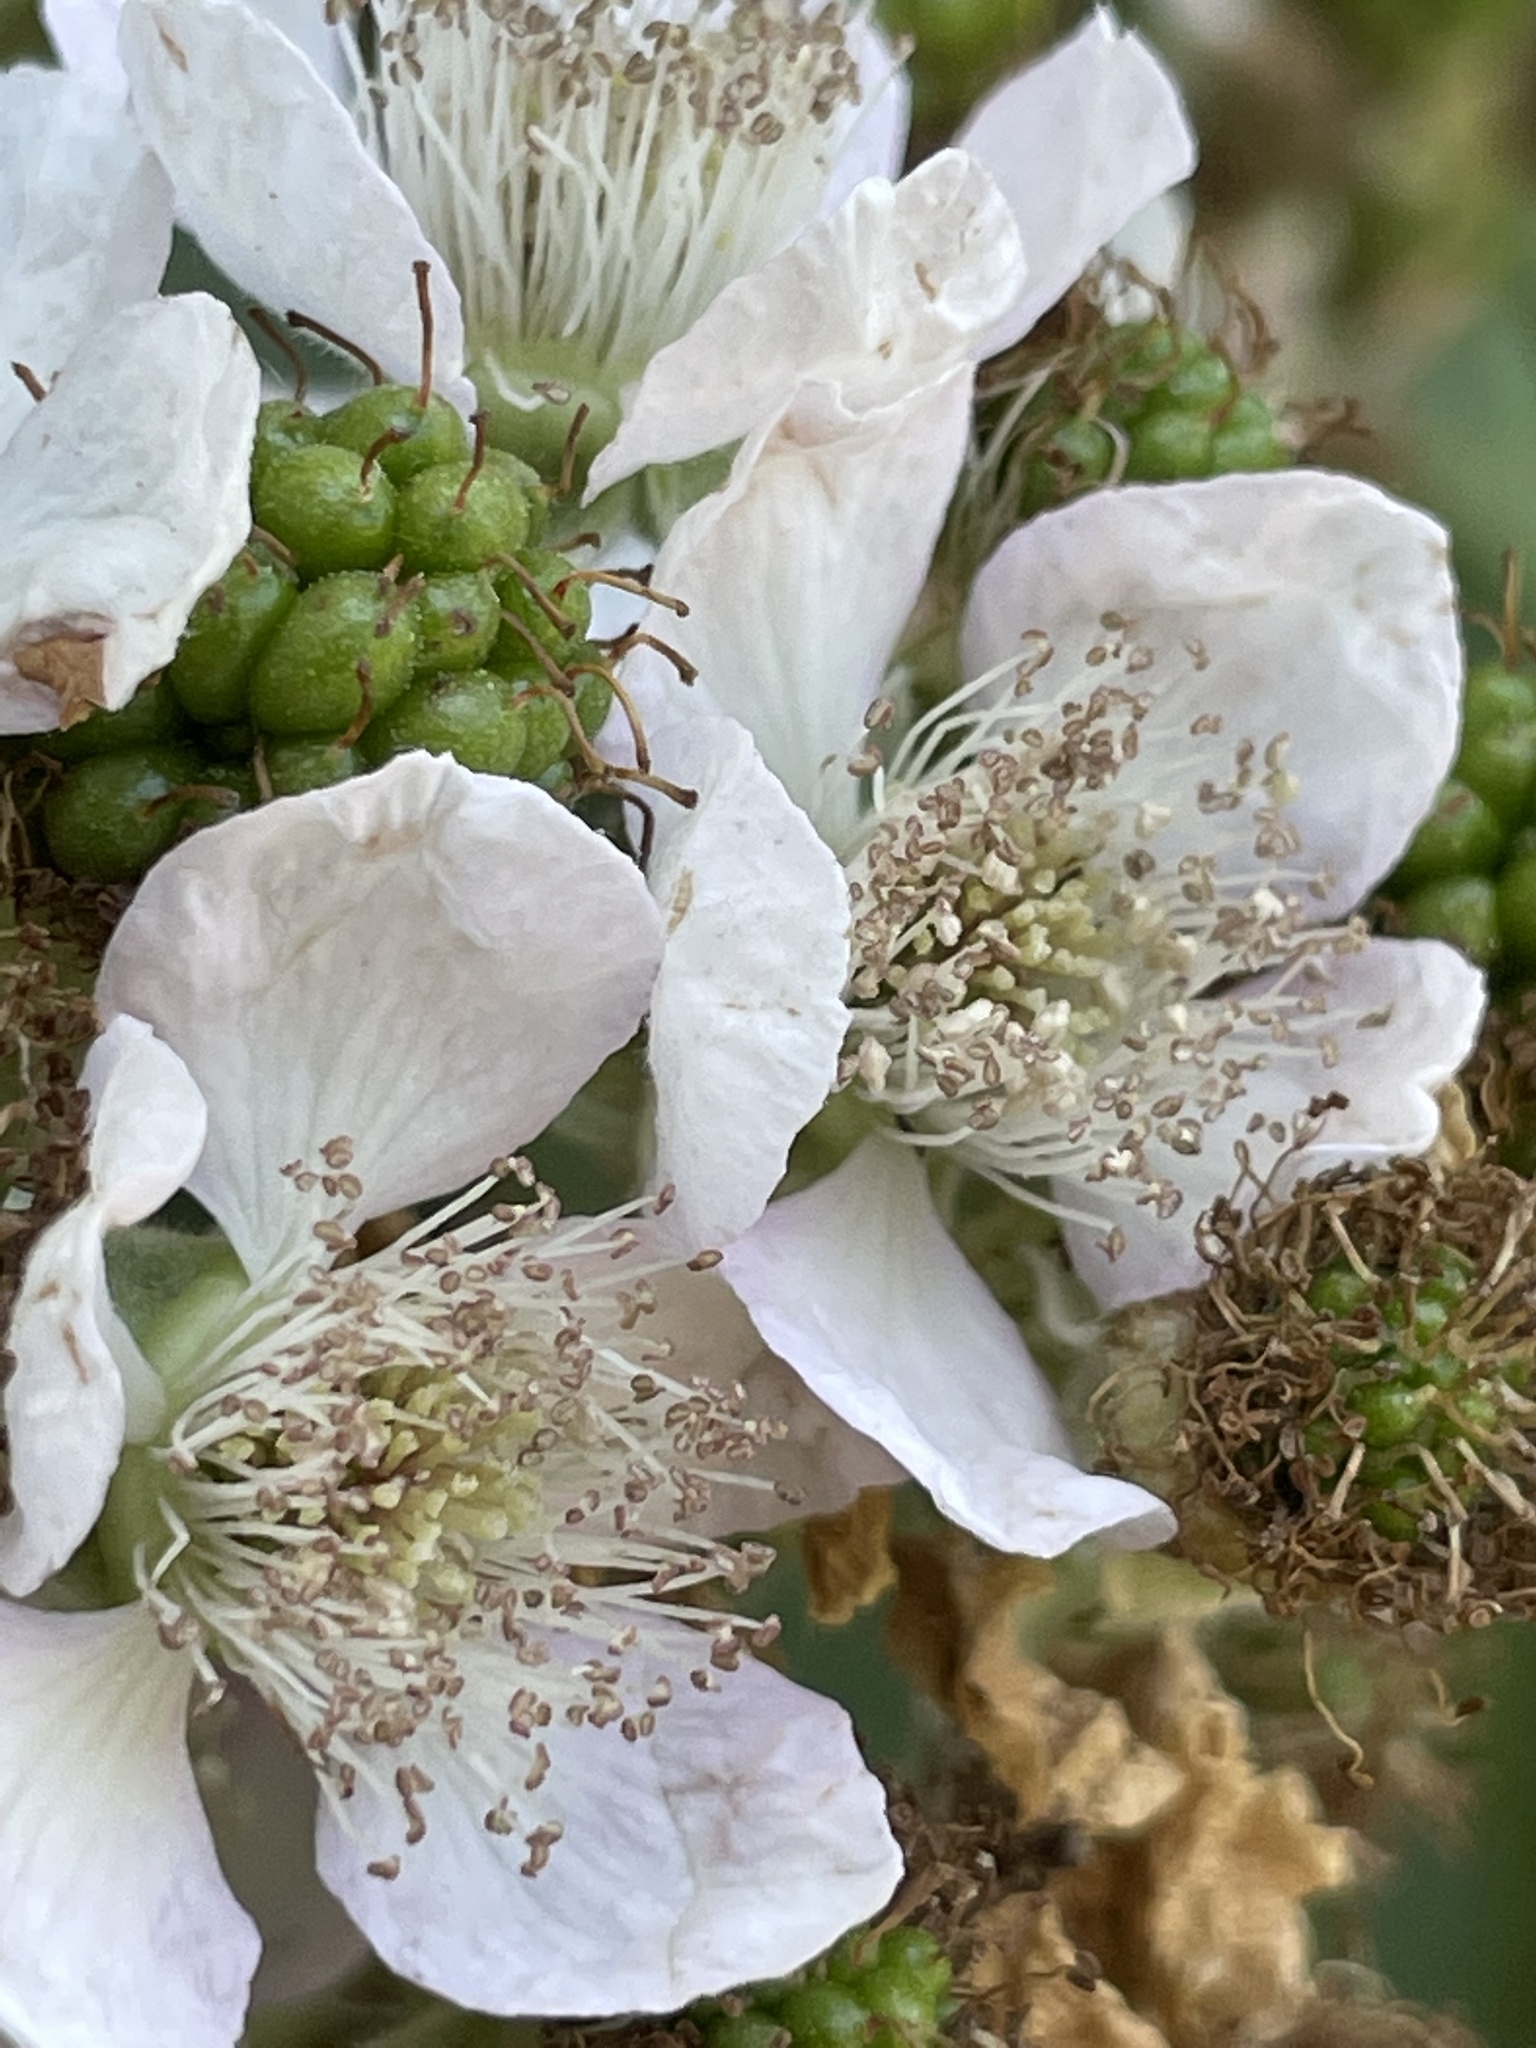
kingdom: Plantae
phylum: Tracheophyta
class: Magnoliopsida
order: Rosales
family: Rosaceae
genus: Rubus
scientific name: Rubus praecox
